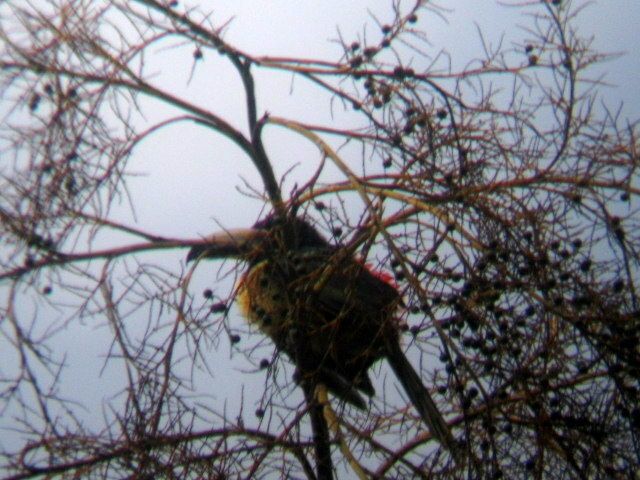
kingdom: Animalia
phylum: Chordata
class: Aves
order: Piciformes
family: Ramphastidae
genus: Pteroglossus
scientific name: Pteroglossus torquatus
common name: Collared aracari
